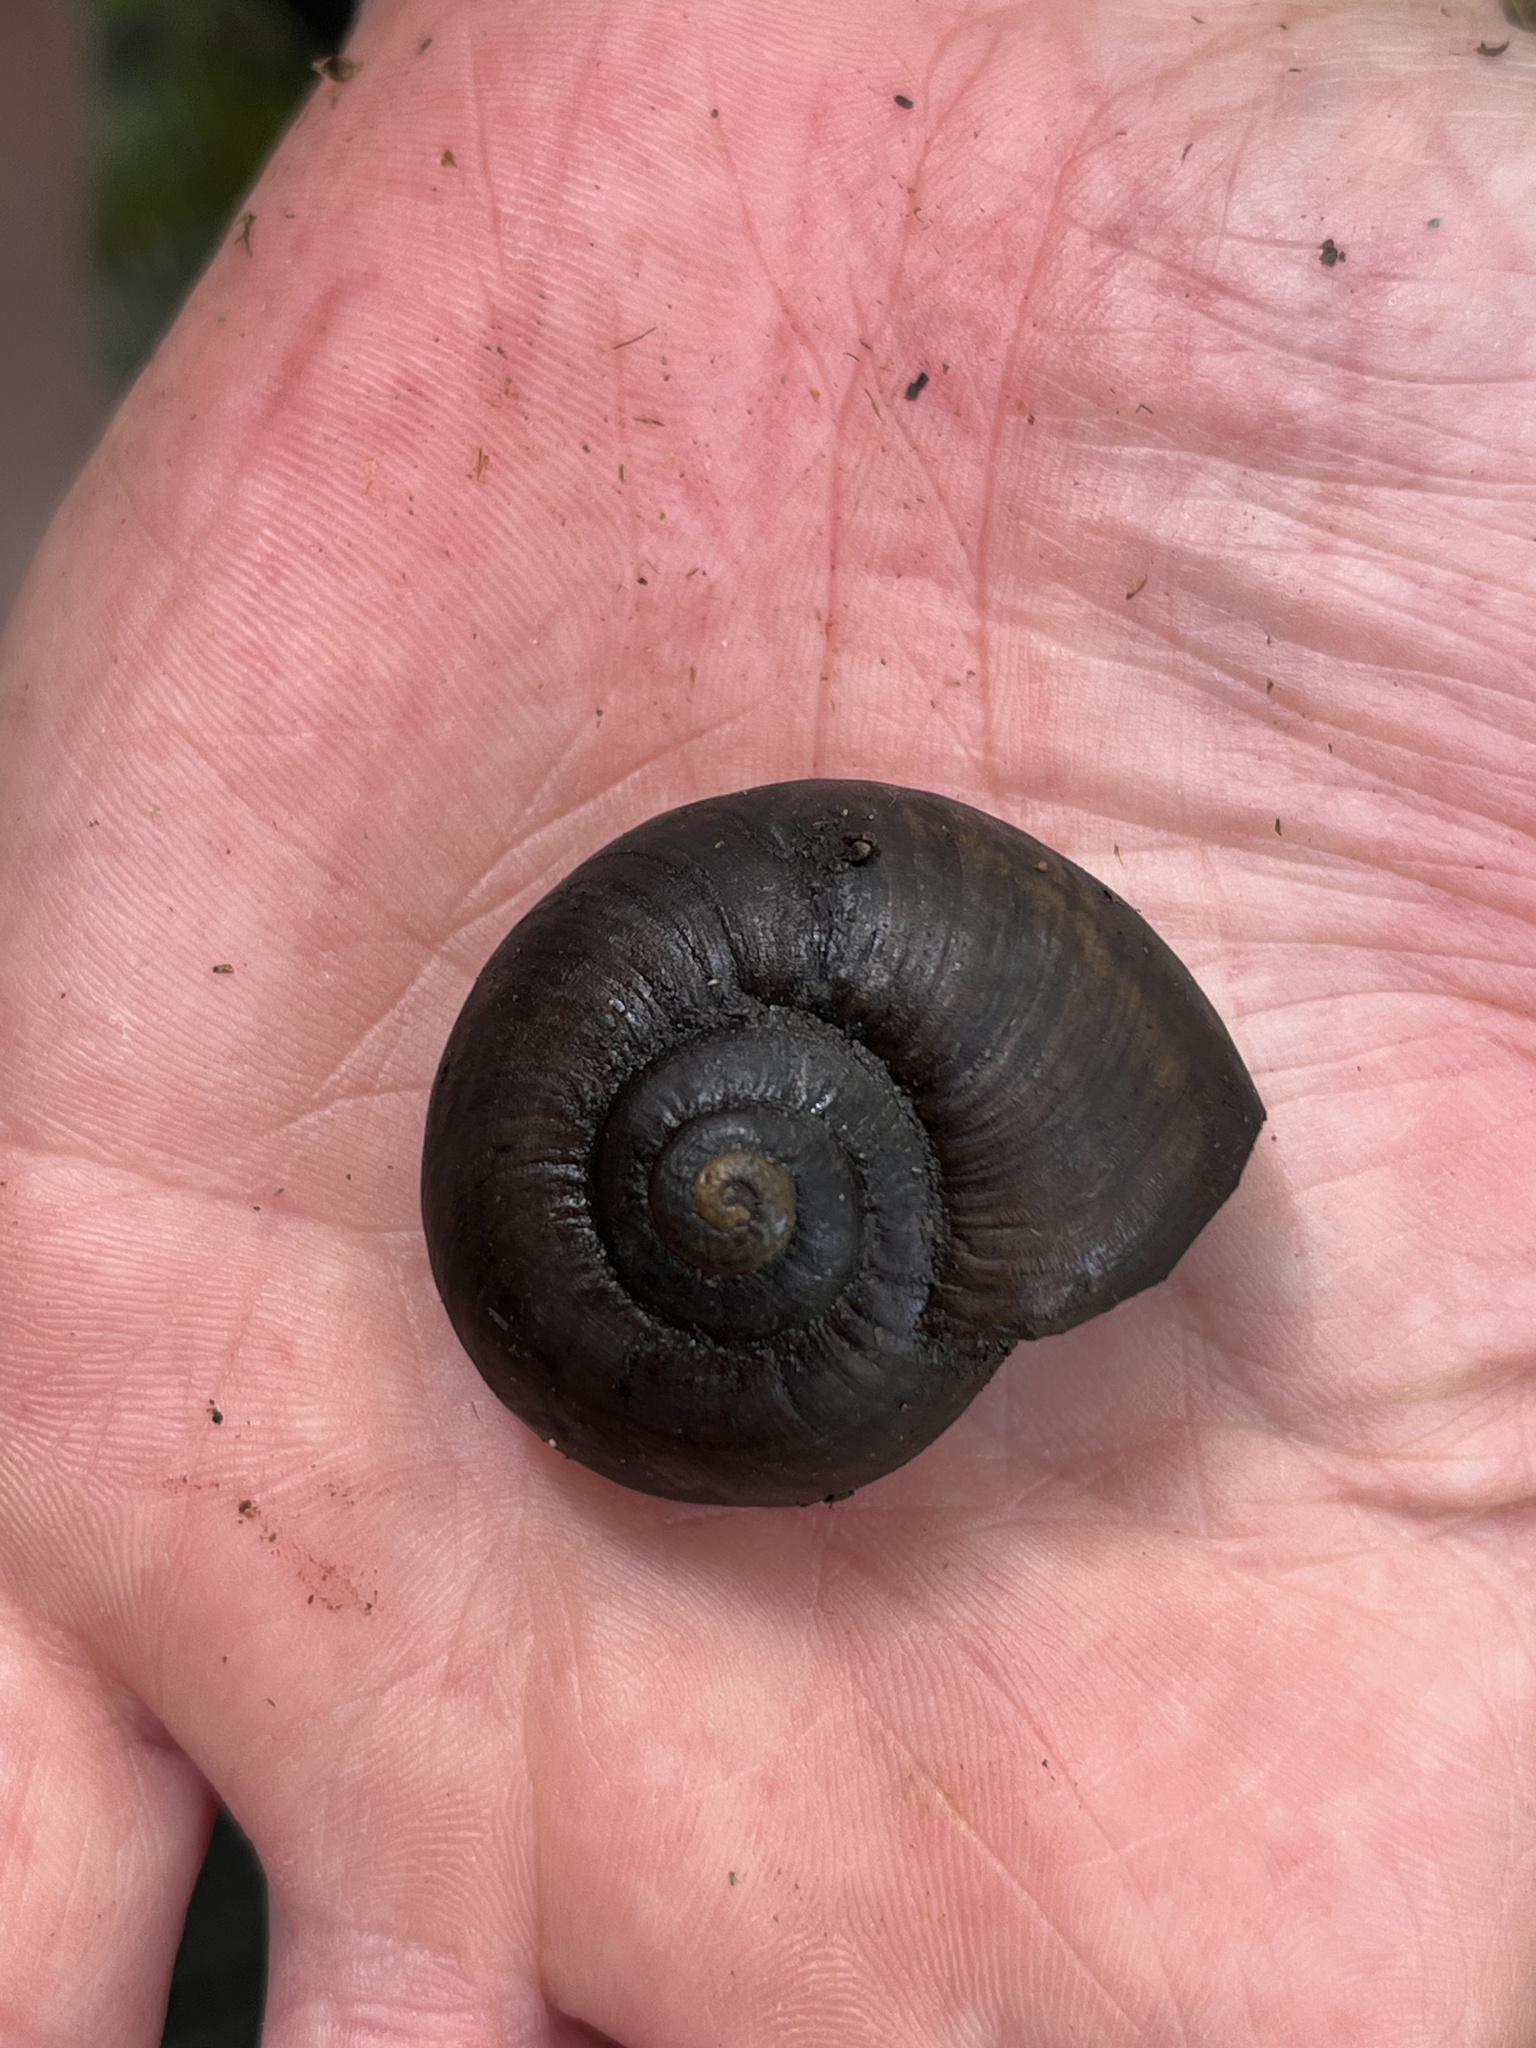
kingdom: Animalia
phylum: Mollusca
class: Gastropoda
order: Stylommatophora
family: Rhytididae
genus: Powelliphanta
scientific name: Powelliphanta traversi
